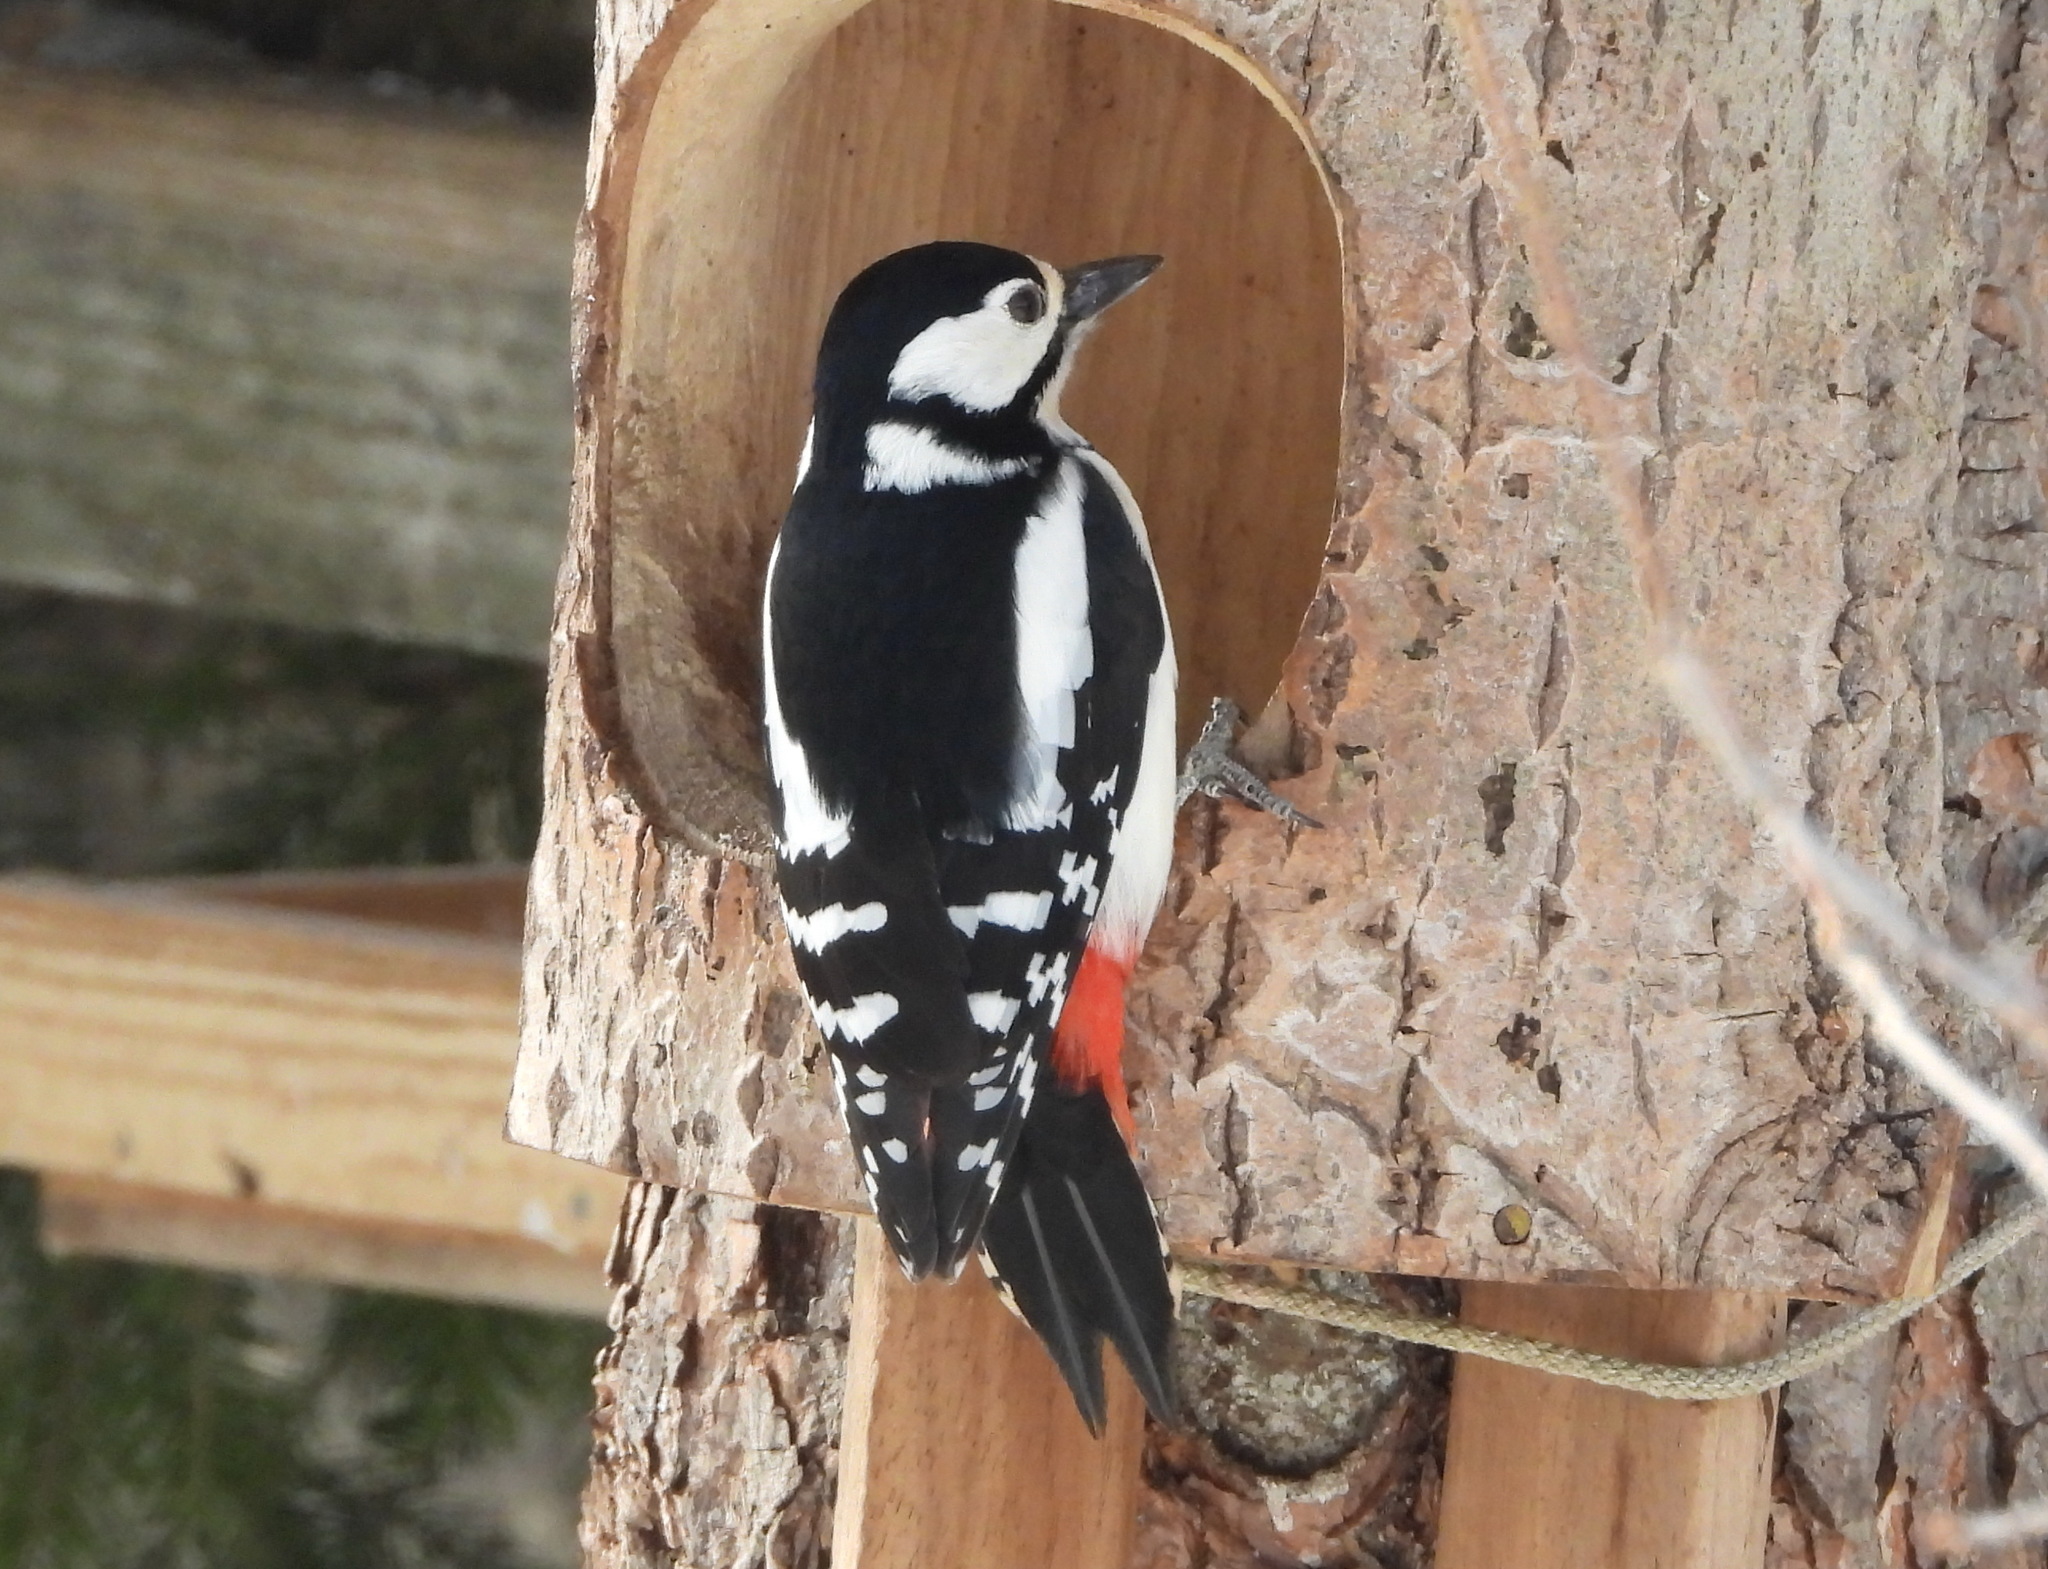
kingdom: Animalia
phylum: Chordata
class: Aves
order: Piciformes
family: Picidae
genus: Dendrocopos
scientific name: Dendrocopos major
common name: Great spotted woodpecker
